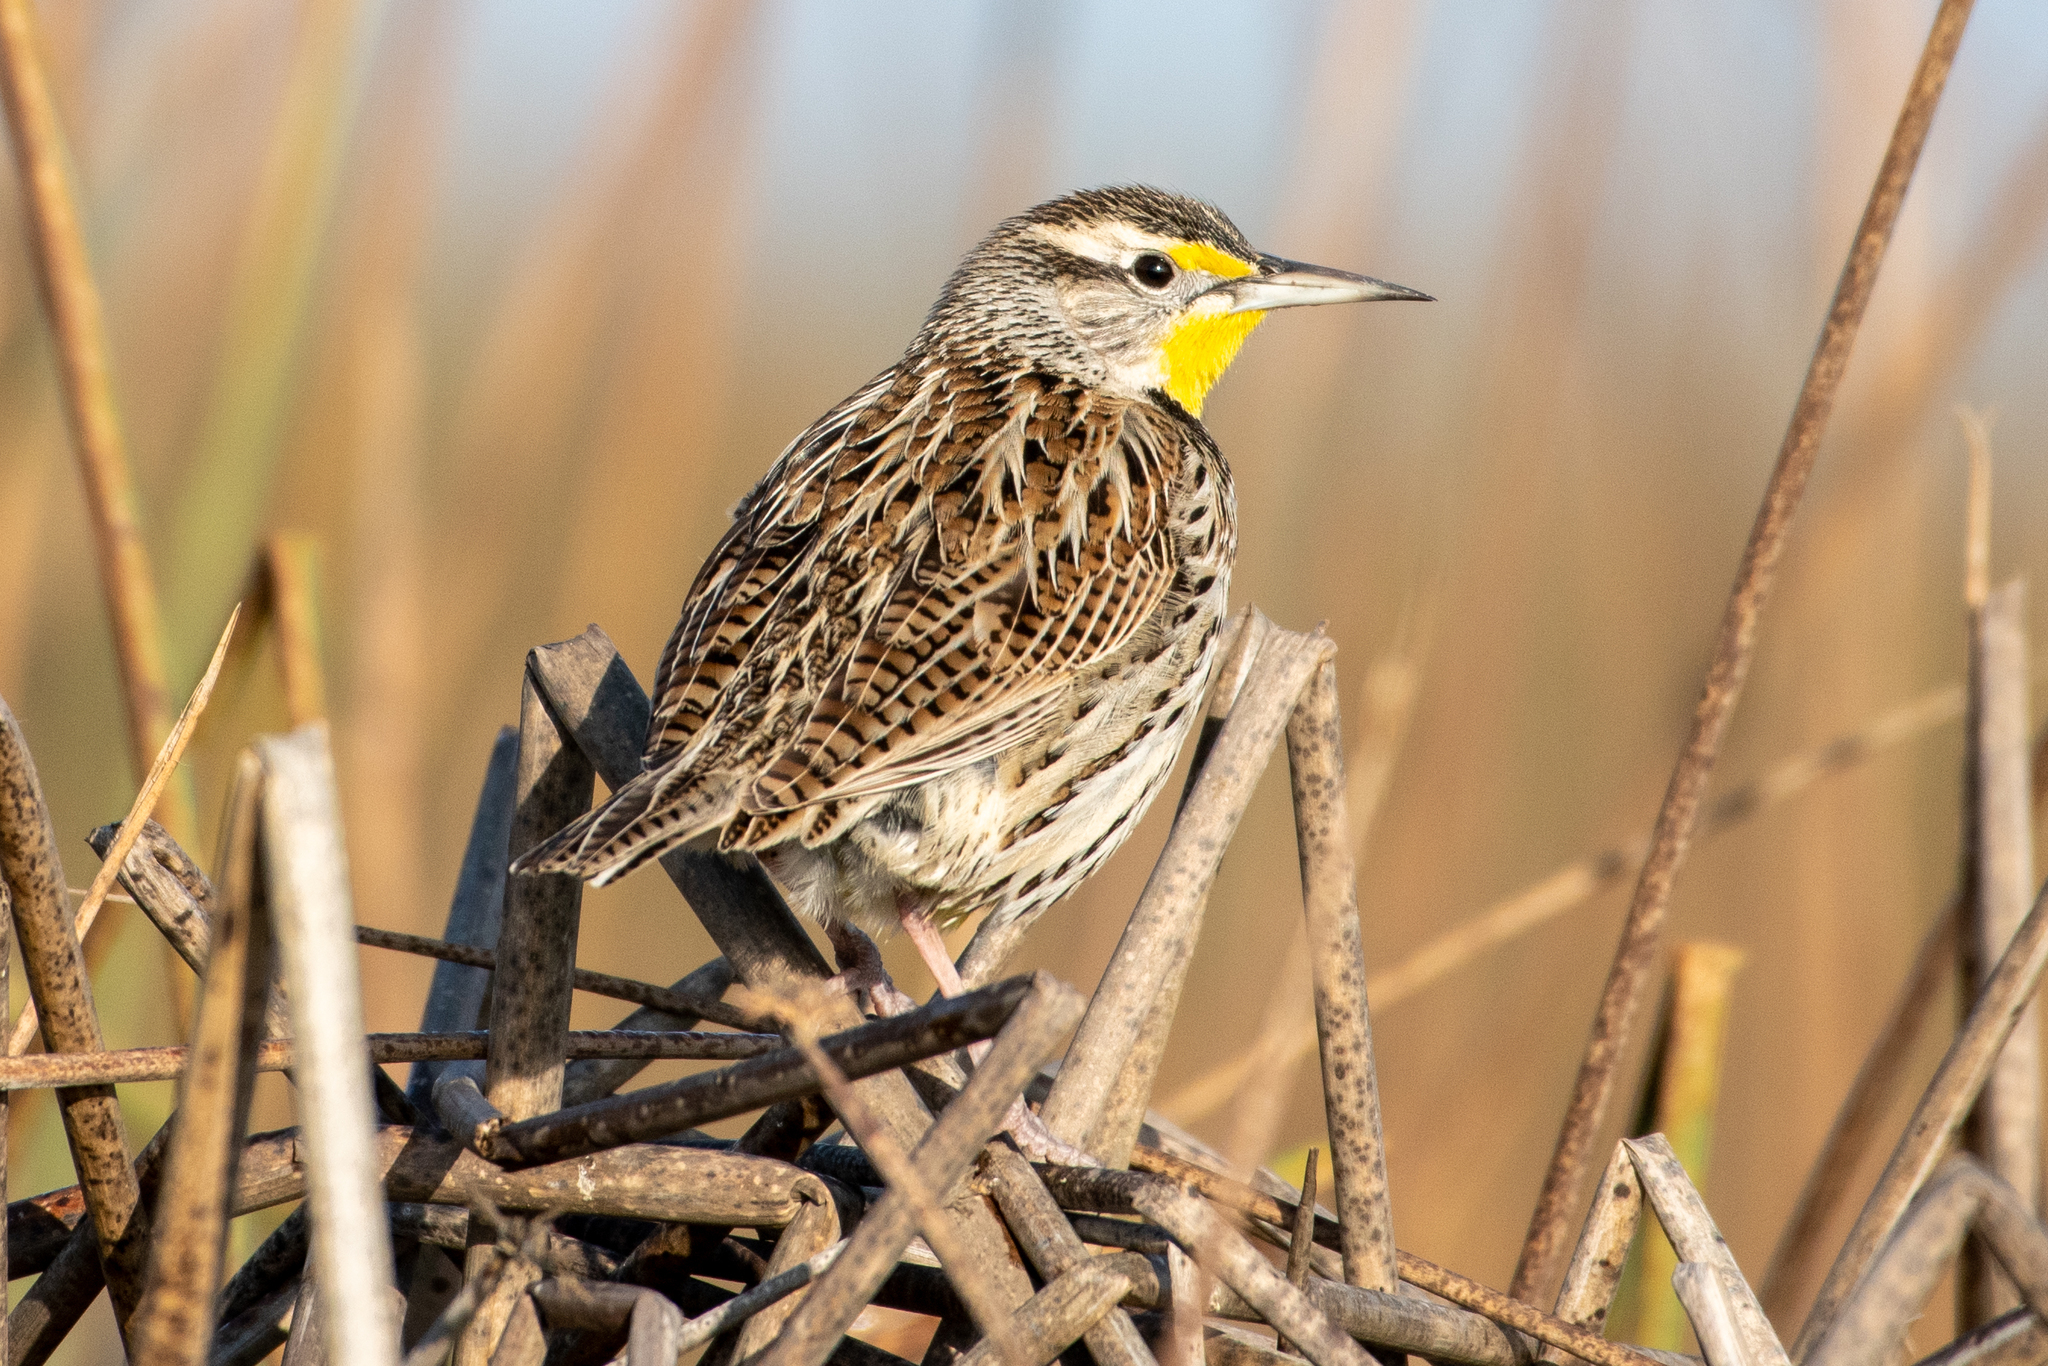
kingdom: Animalia
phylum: Chordata
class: Aves
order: Passeriformes
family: Icteridae
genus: Sturnella
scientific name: Sturnella neglecta
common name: Western meadowlark
